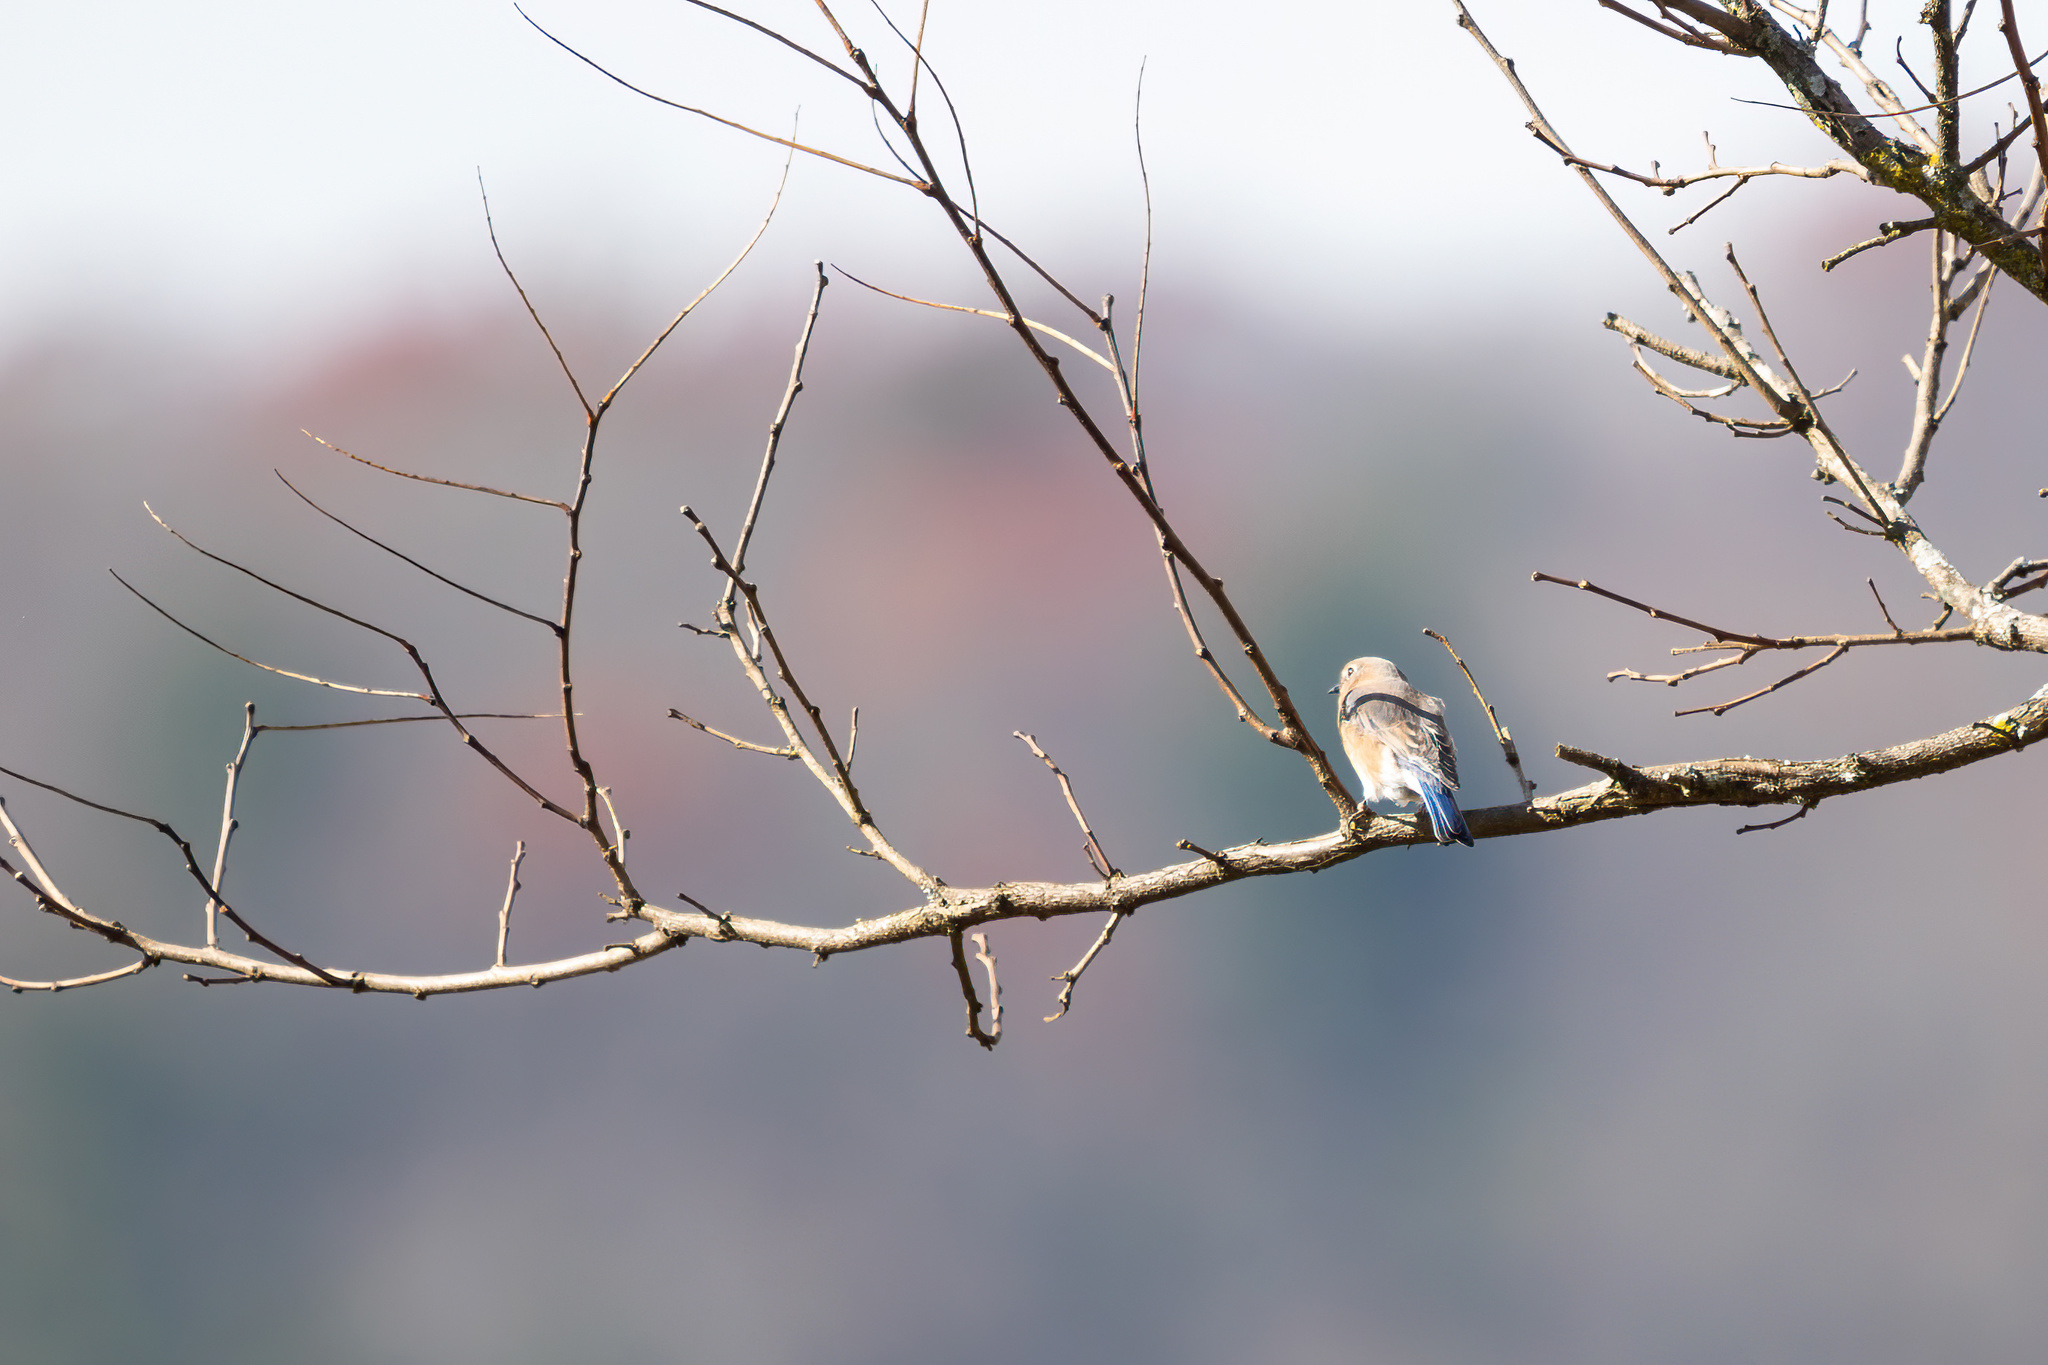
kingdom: Animalia
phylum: Chordata
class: Aves
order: Passeriformes
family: Turdidae
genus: Sialia
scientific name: Sialia sialis
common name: Eastern bluebird
